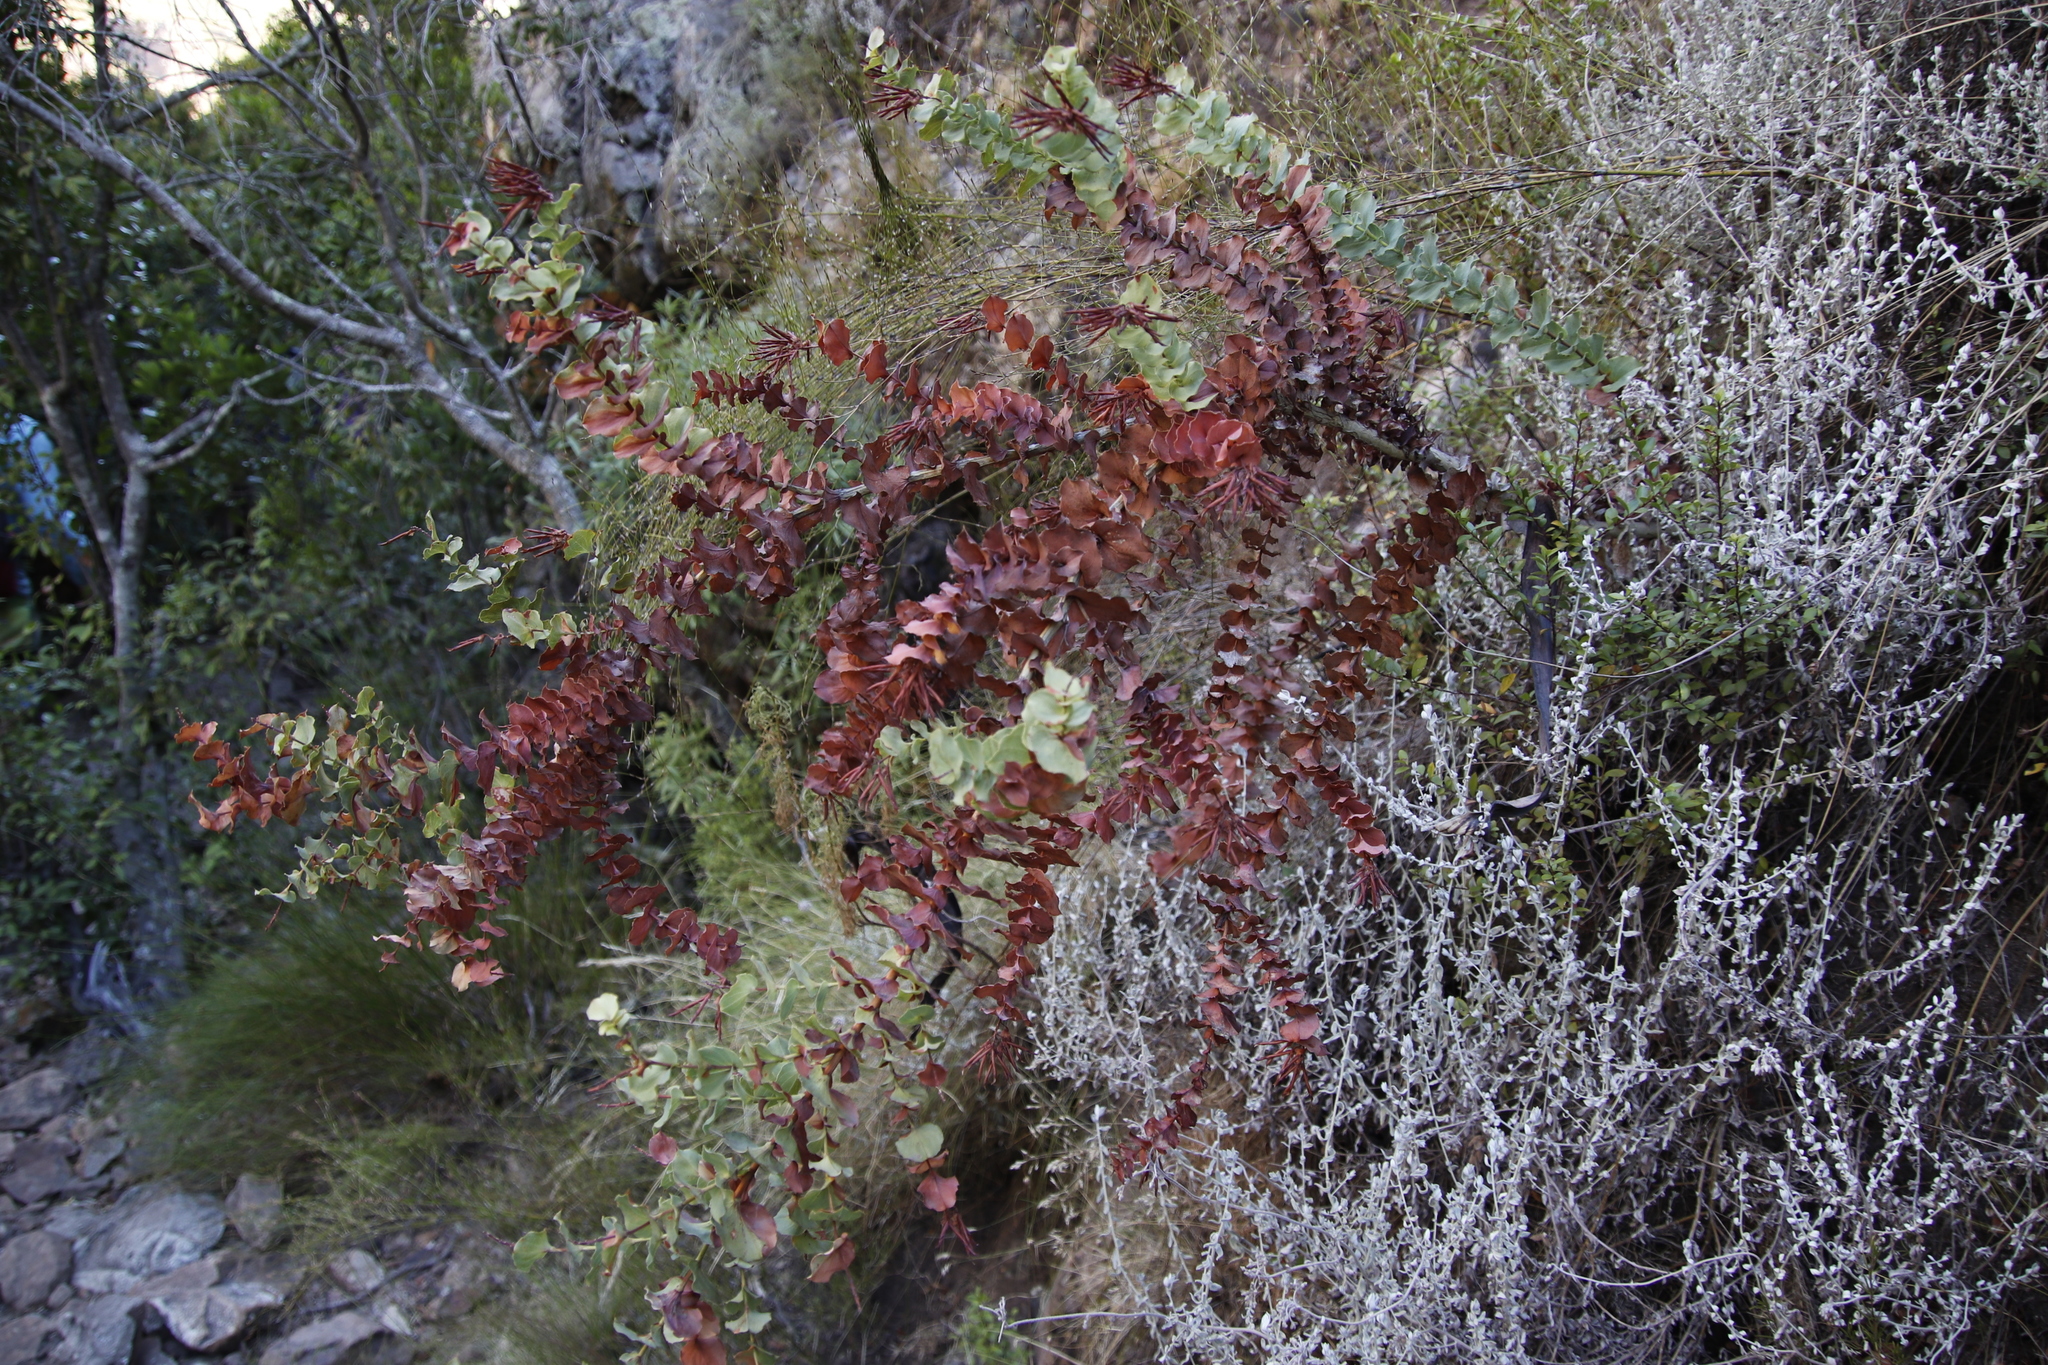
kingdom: Plantae
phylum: Tracheophyta
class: Magnoliopsida
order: Fabales
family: Fabaceae
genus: Aspalathus
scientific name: Aspalathus perfoliata
